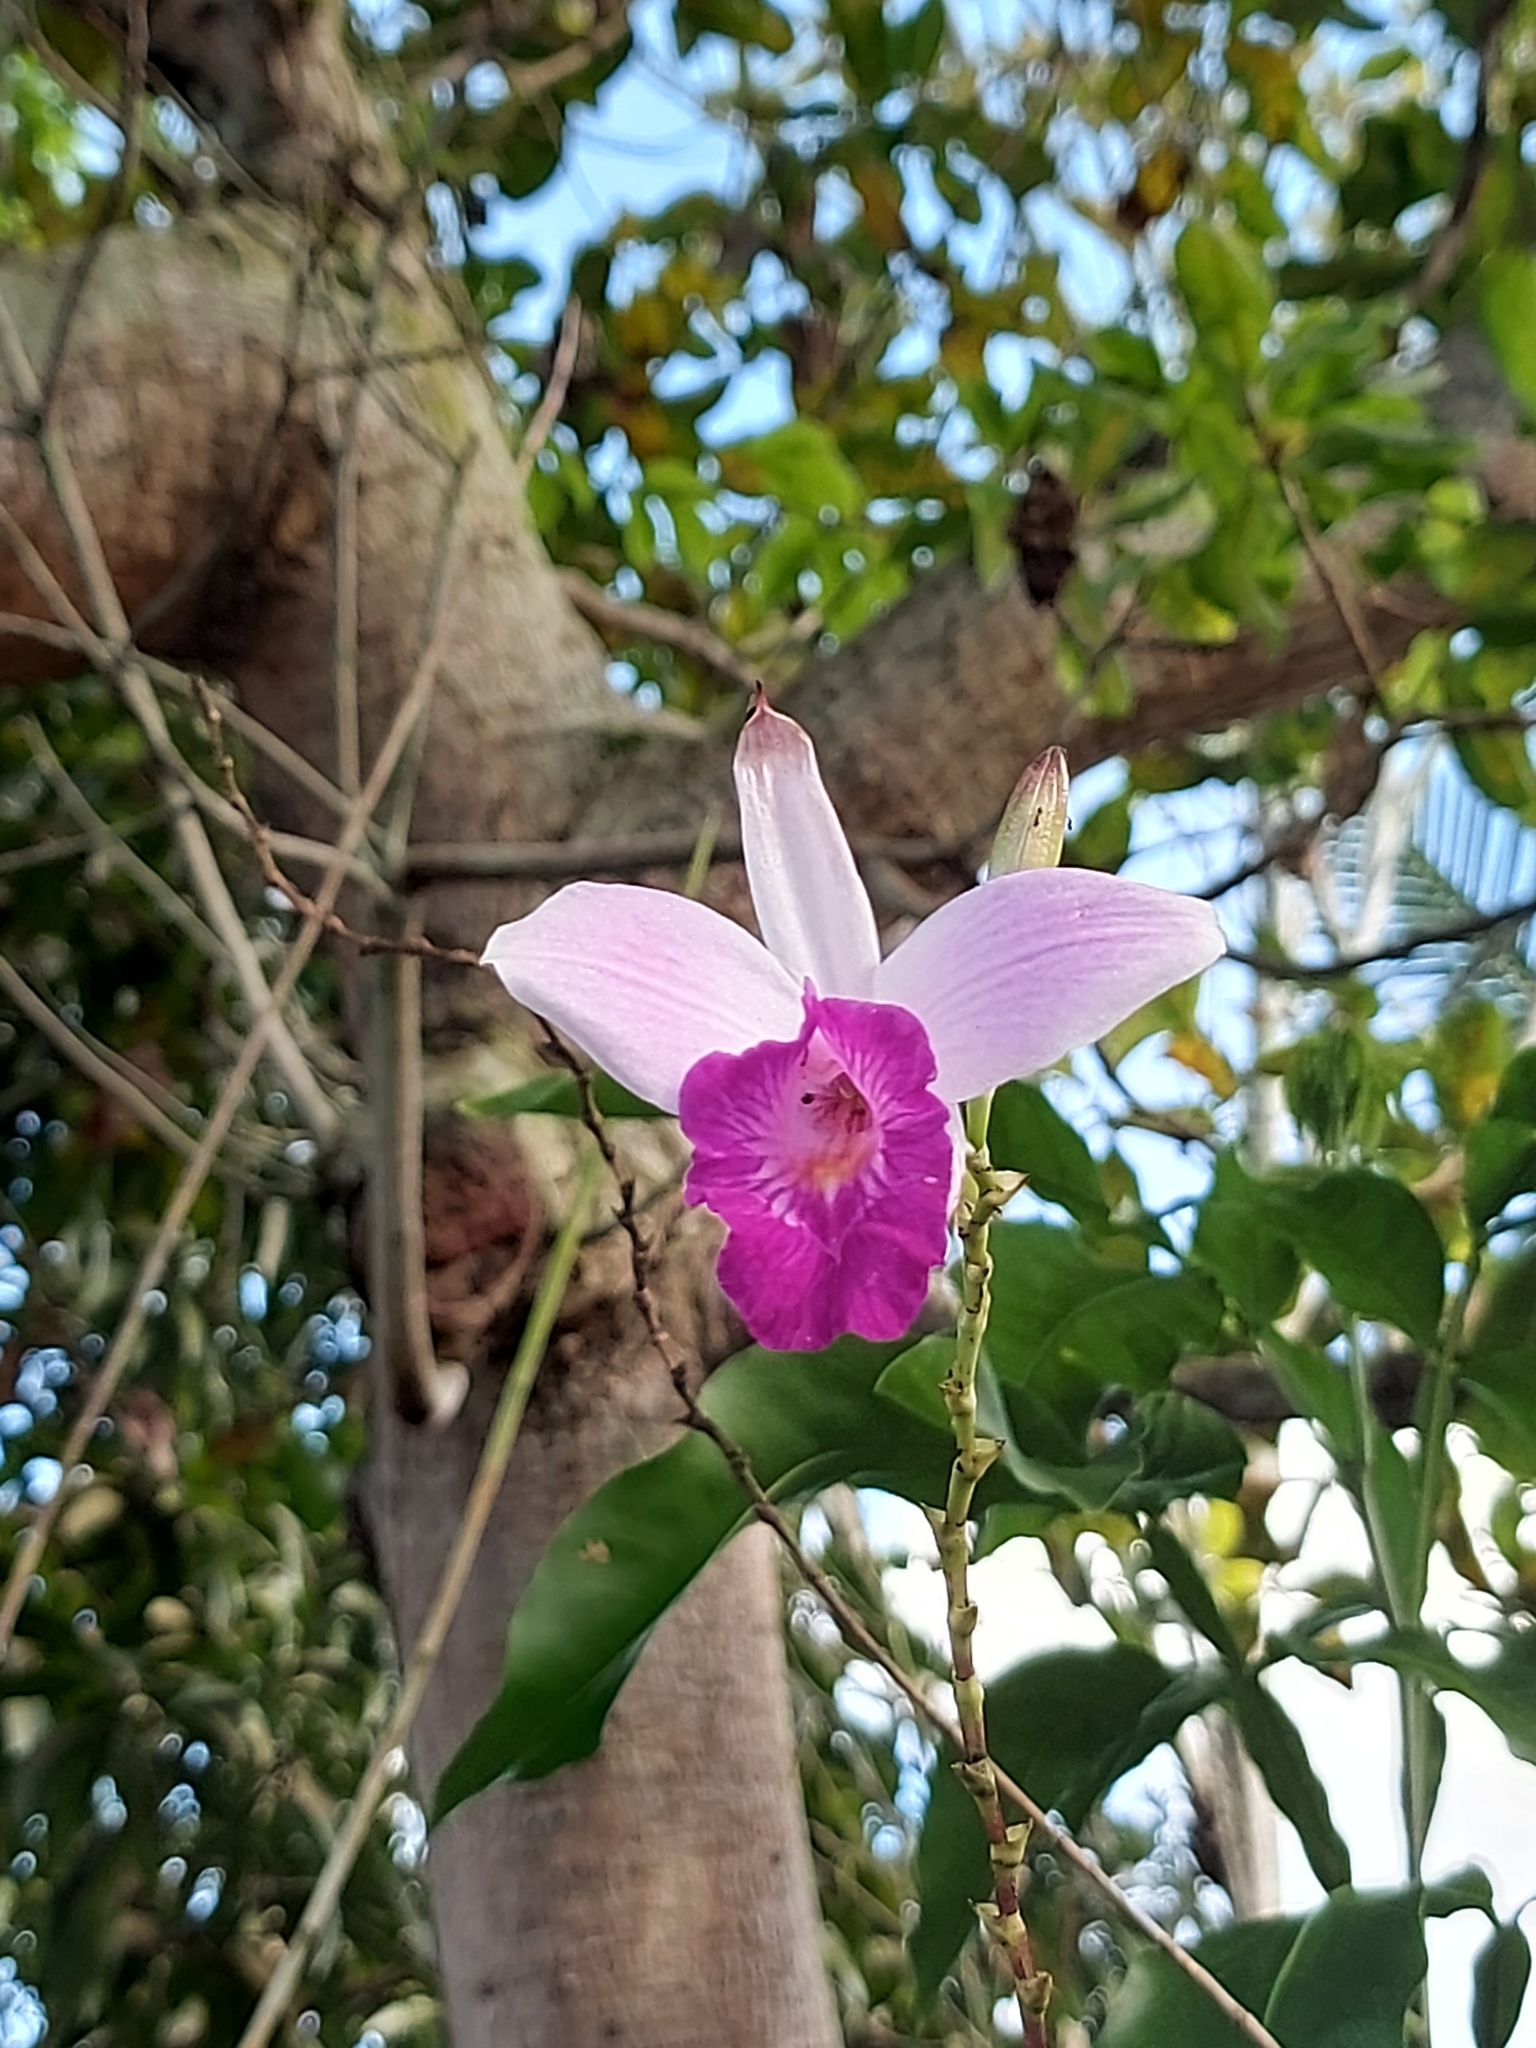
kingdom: Plantae
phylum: Tracheophyta
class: Liliopsida
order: Asparagales
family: Orchidaceae
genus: Arundina
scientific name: Arundina graminifolia
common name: Bamboo orchid
